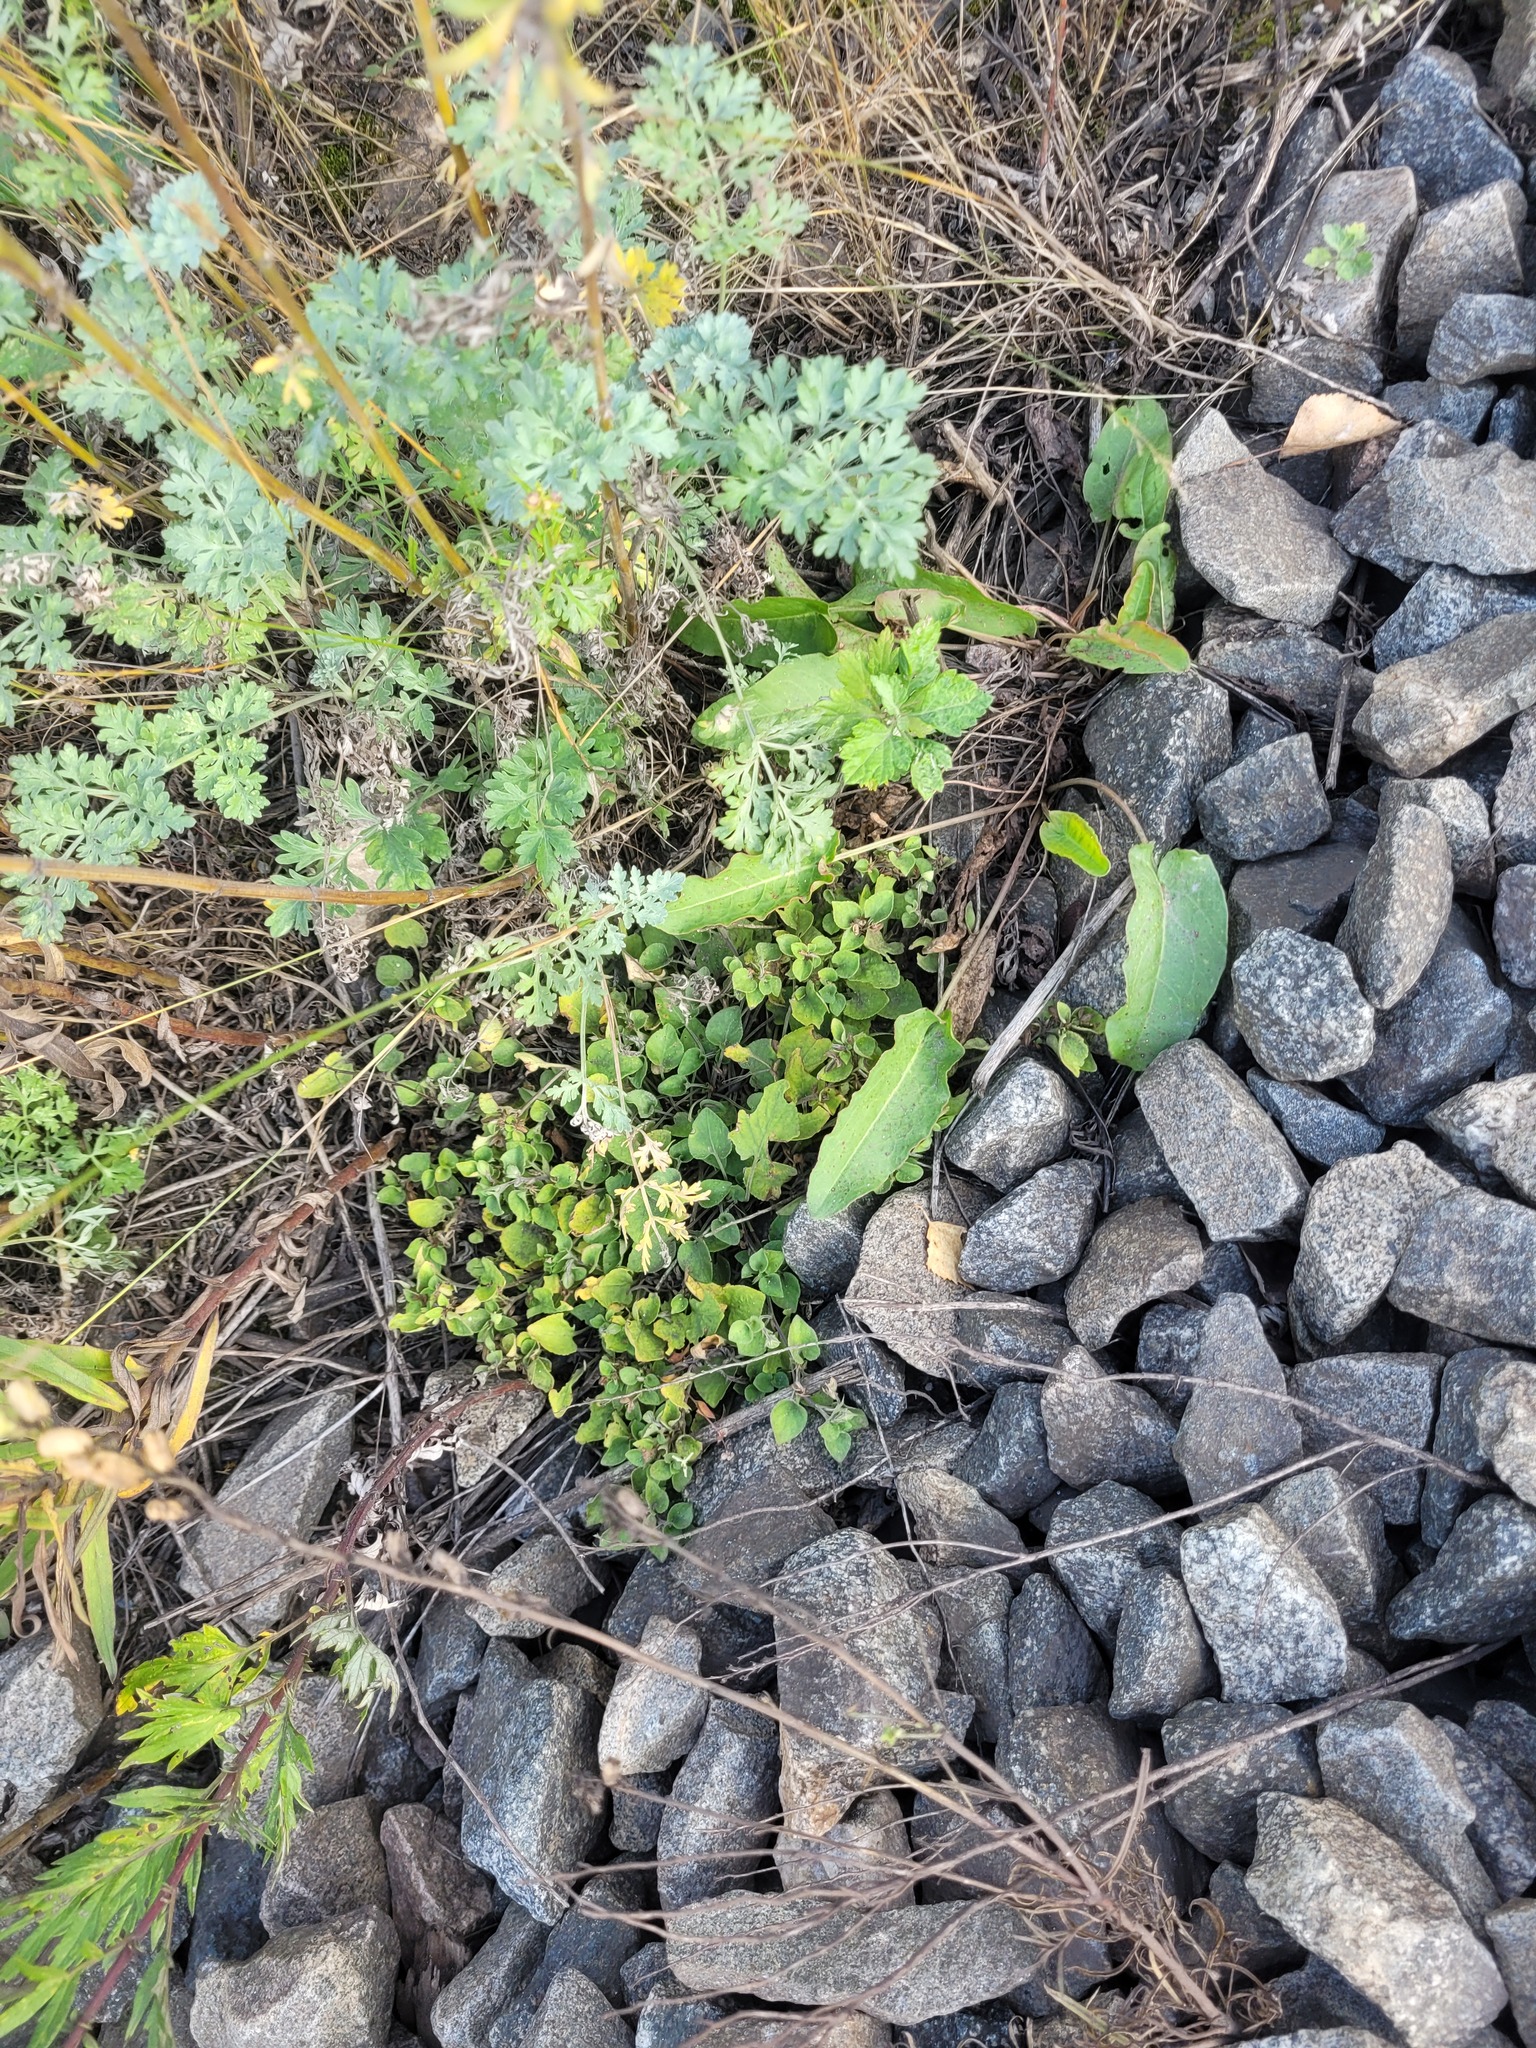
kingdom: Plantae
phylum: Tracheophyta
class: Magnoliopsida
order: Malpighiales
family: Violaceae
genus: Viola
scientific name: Viola rupestris
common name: Teesdale violet
